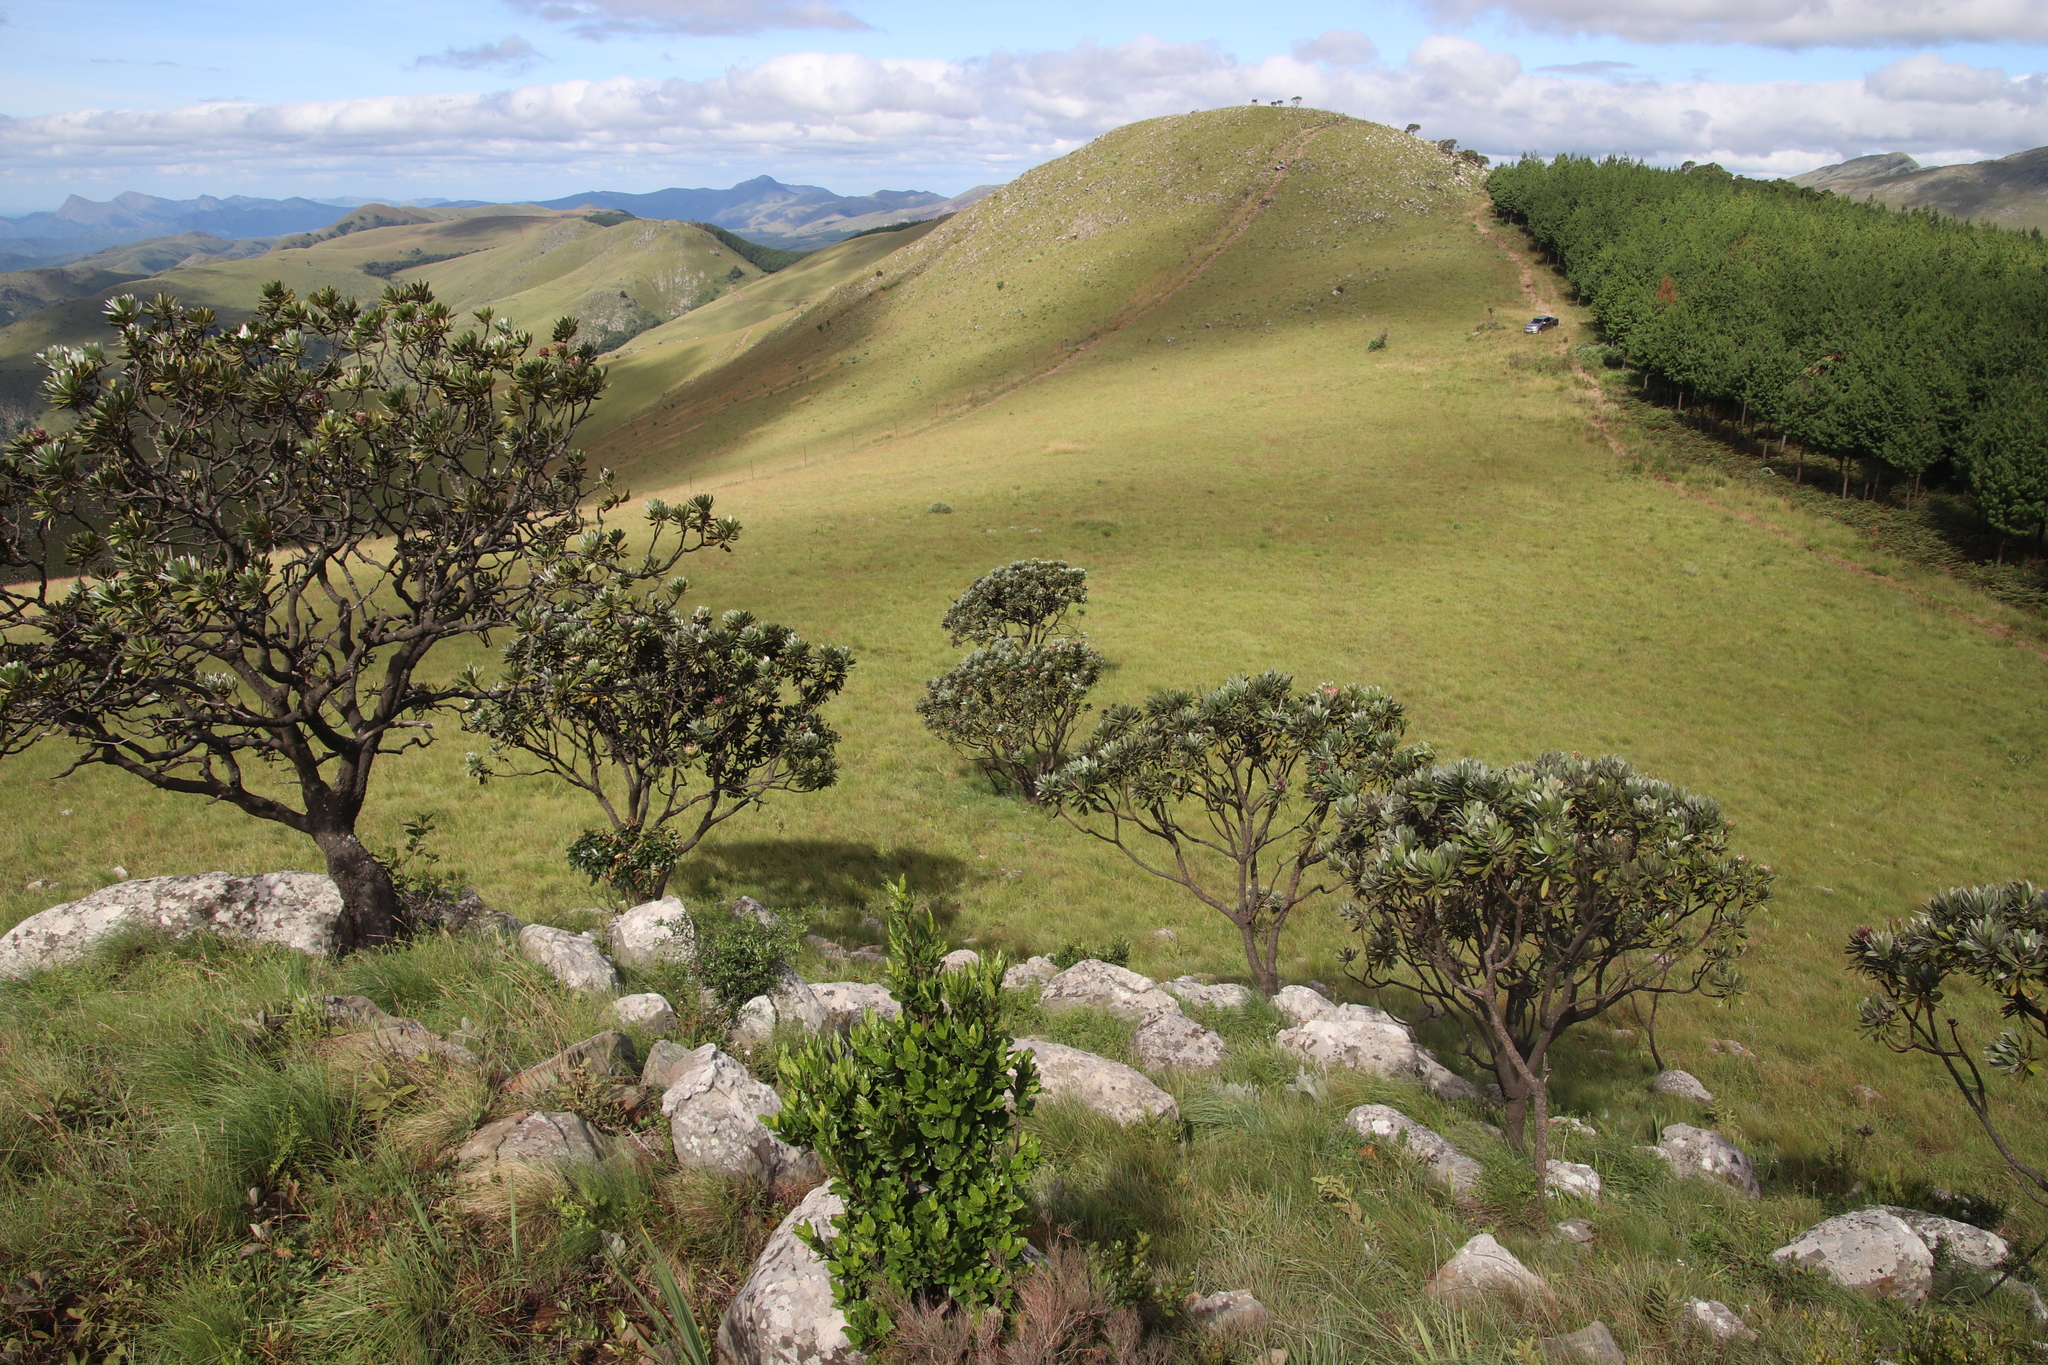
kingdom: Plantae
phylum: Tracheophyta
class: Magnoliopsida
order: Proteales
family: Proteaceae
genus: Protea
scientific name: Protea roupelliae
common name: Silver sugarbush
